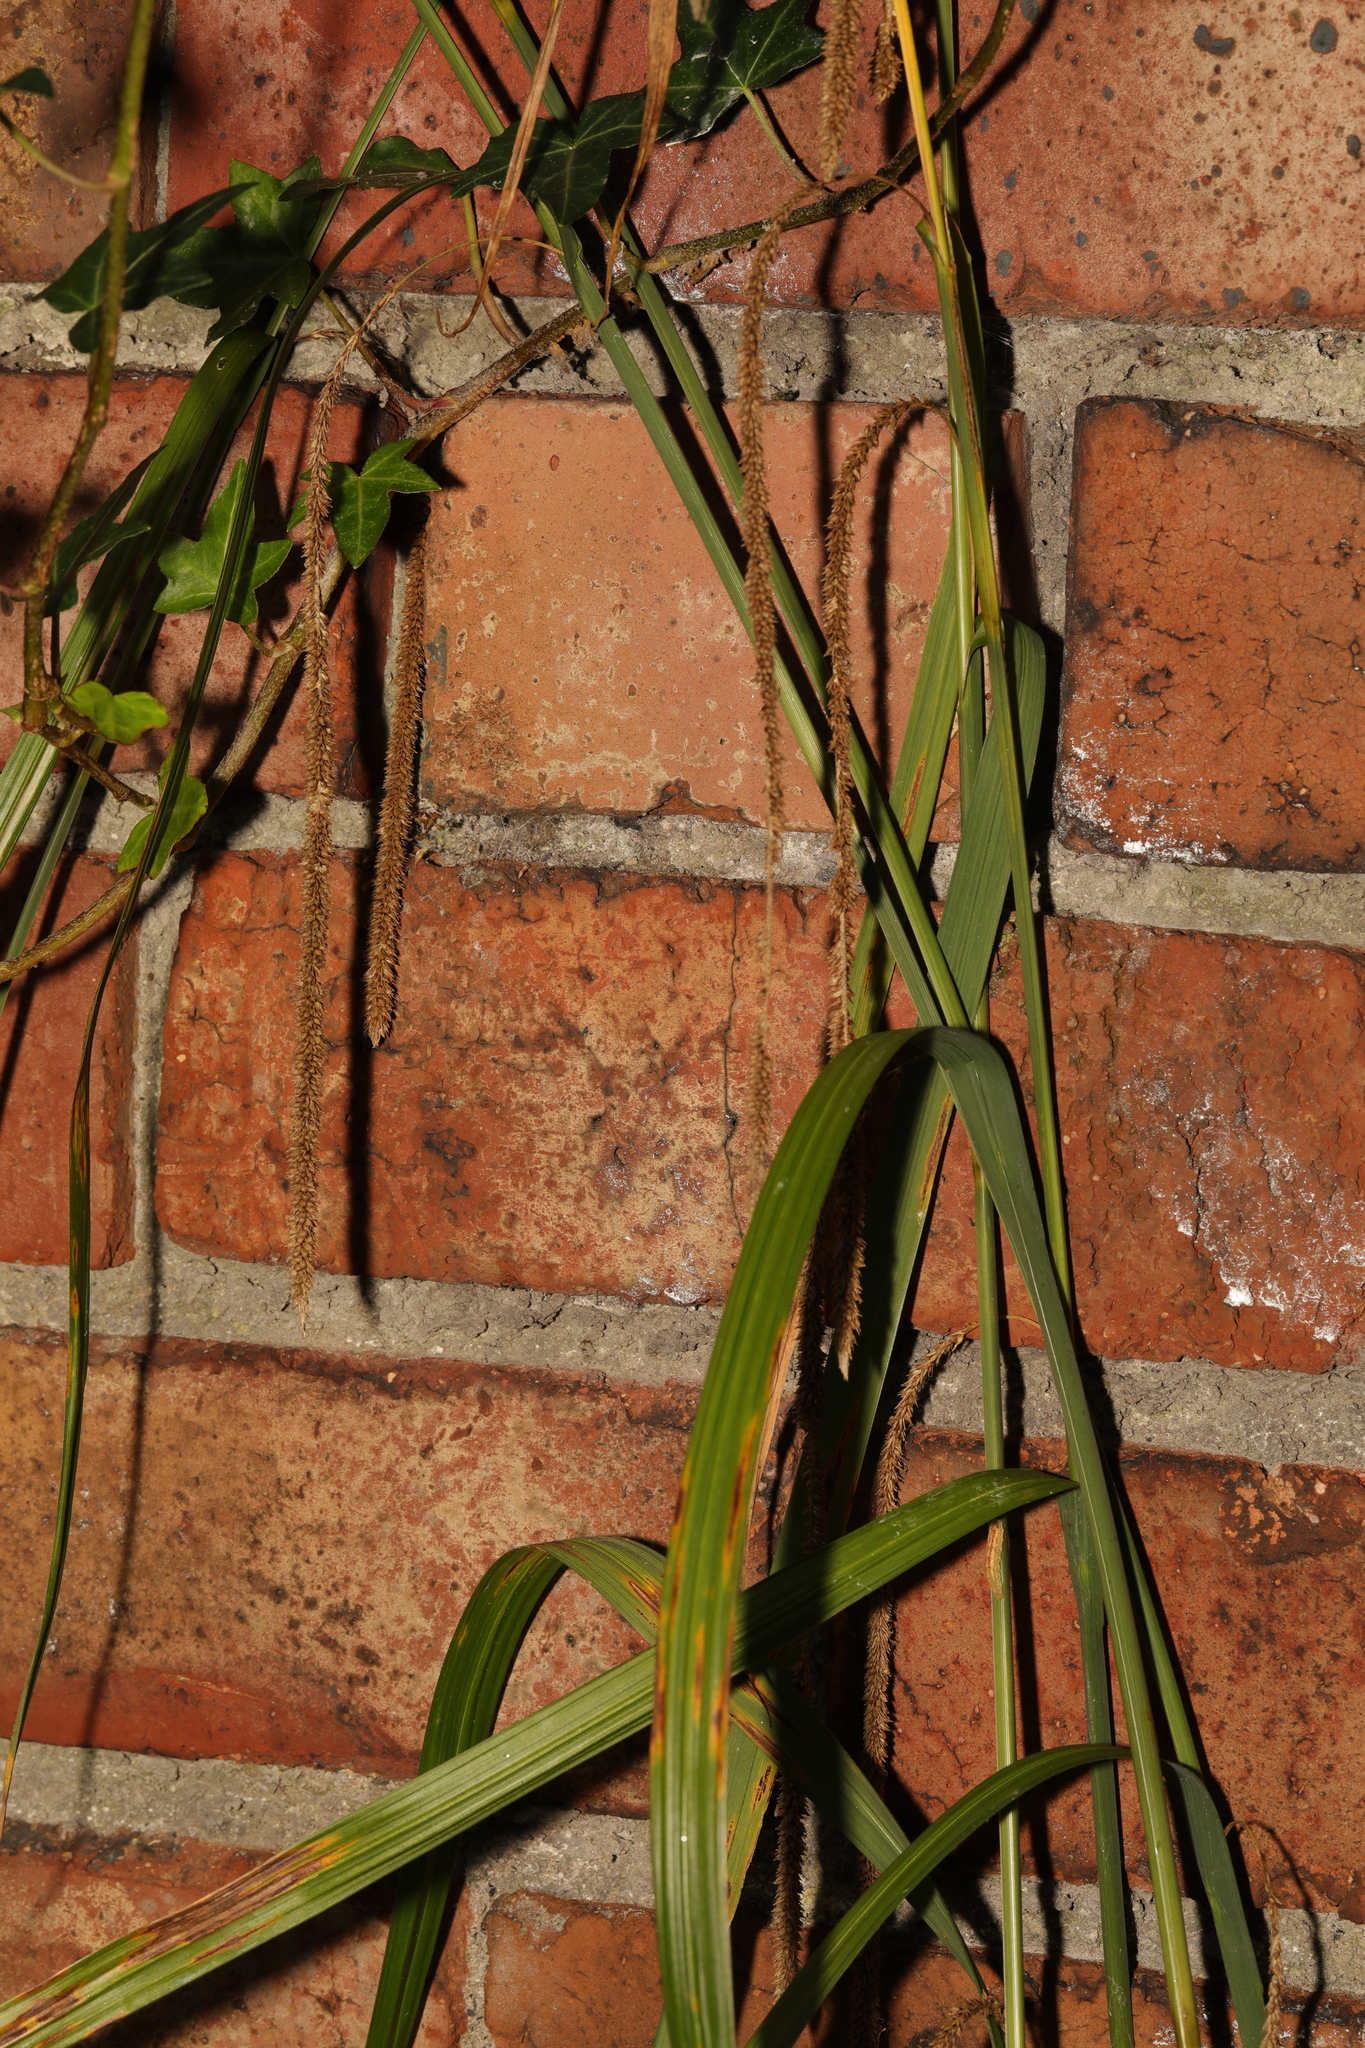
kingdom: Plantae
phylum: Tracheophyta
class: Liliopsida
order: Poales
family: Cyperaceae
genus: Carex
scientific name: Carex pendula
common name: Pendulous sedge
